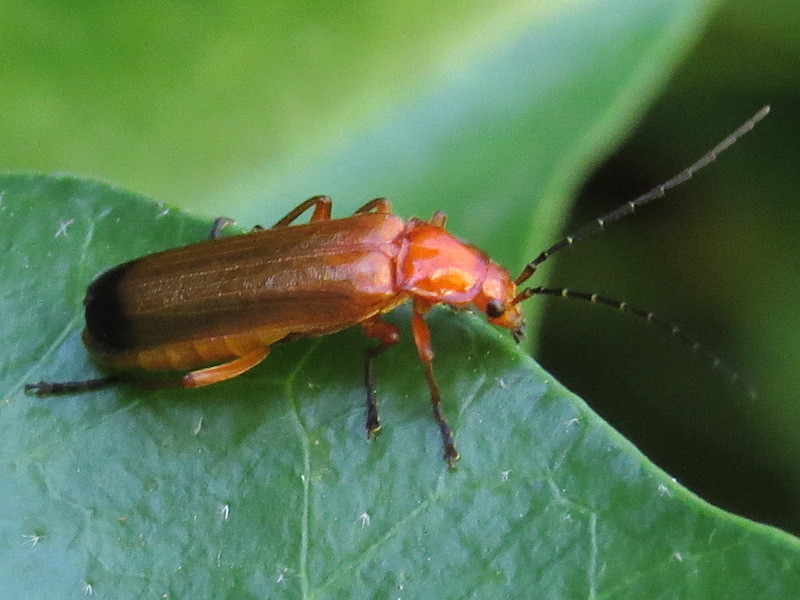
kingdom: Animalia
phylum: Arthropoda
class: Insecta
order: Coleoptera
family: Cantharidae
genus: Rhagonycha
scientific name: Rhagonycha fulva
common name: Common red soldier beetle
